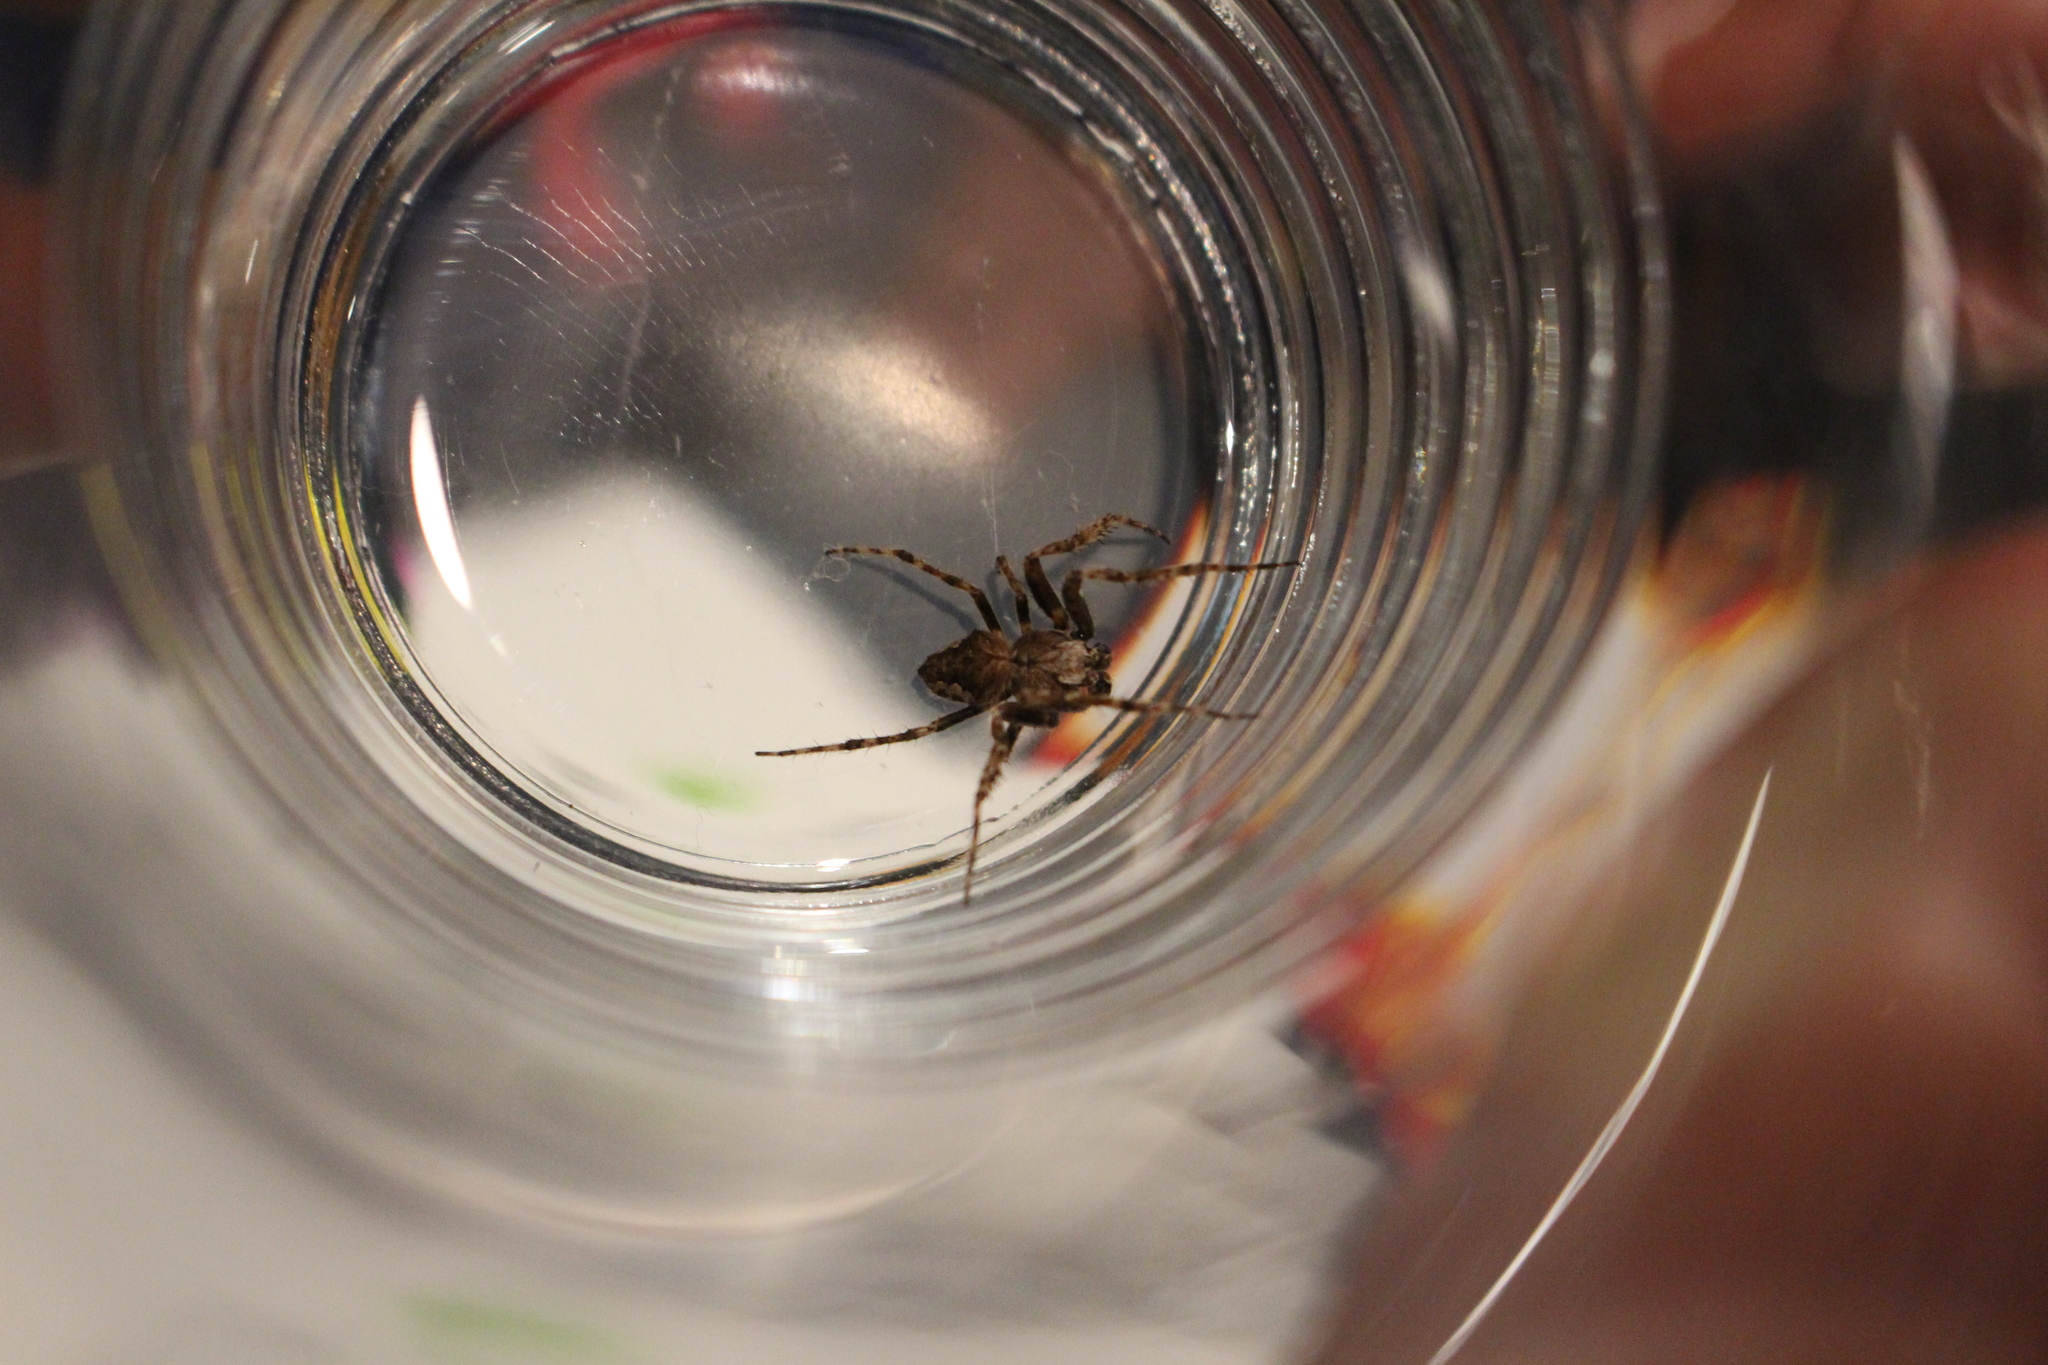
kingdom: Animalia
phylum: Arthropoda
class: Arachnida
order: Araneae
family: Araneidae
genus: Eriophora
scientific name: Eriophora pustulosa
